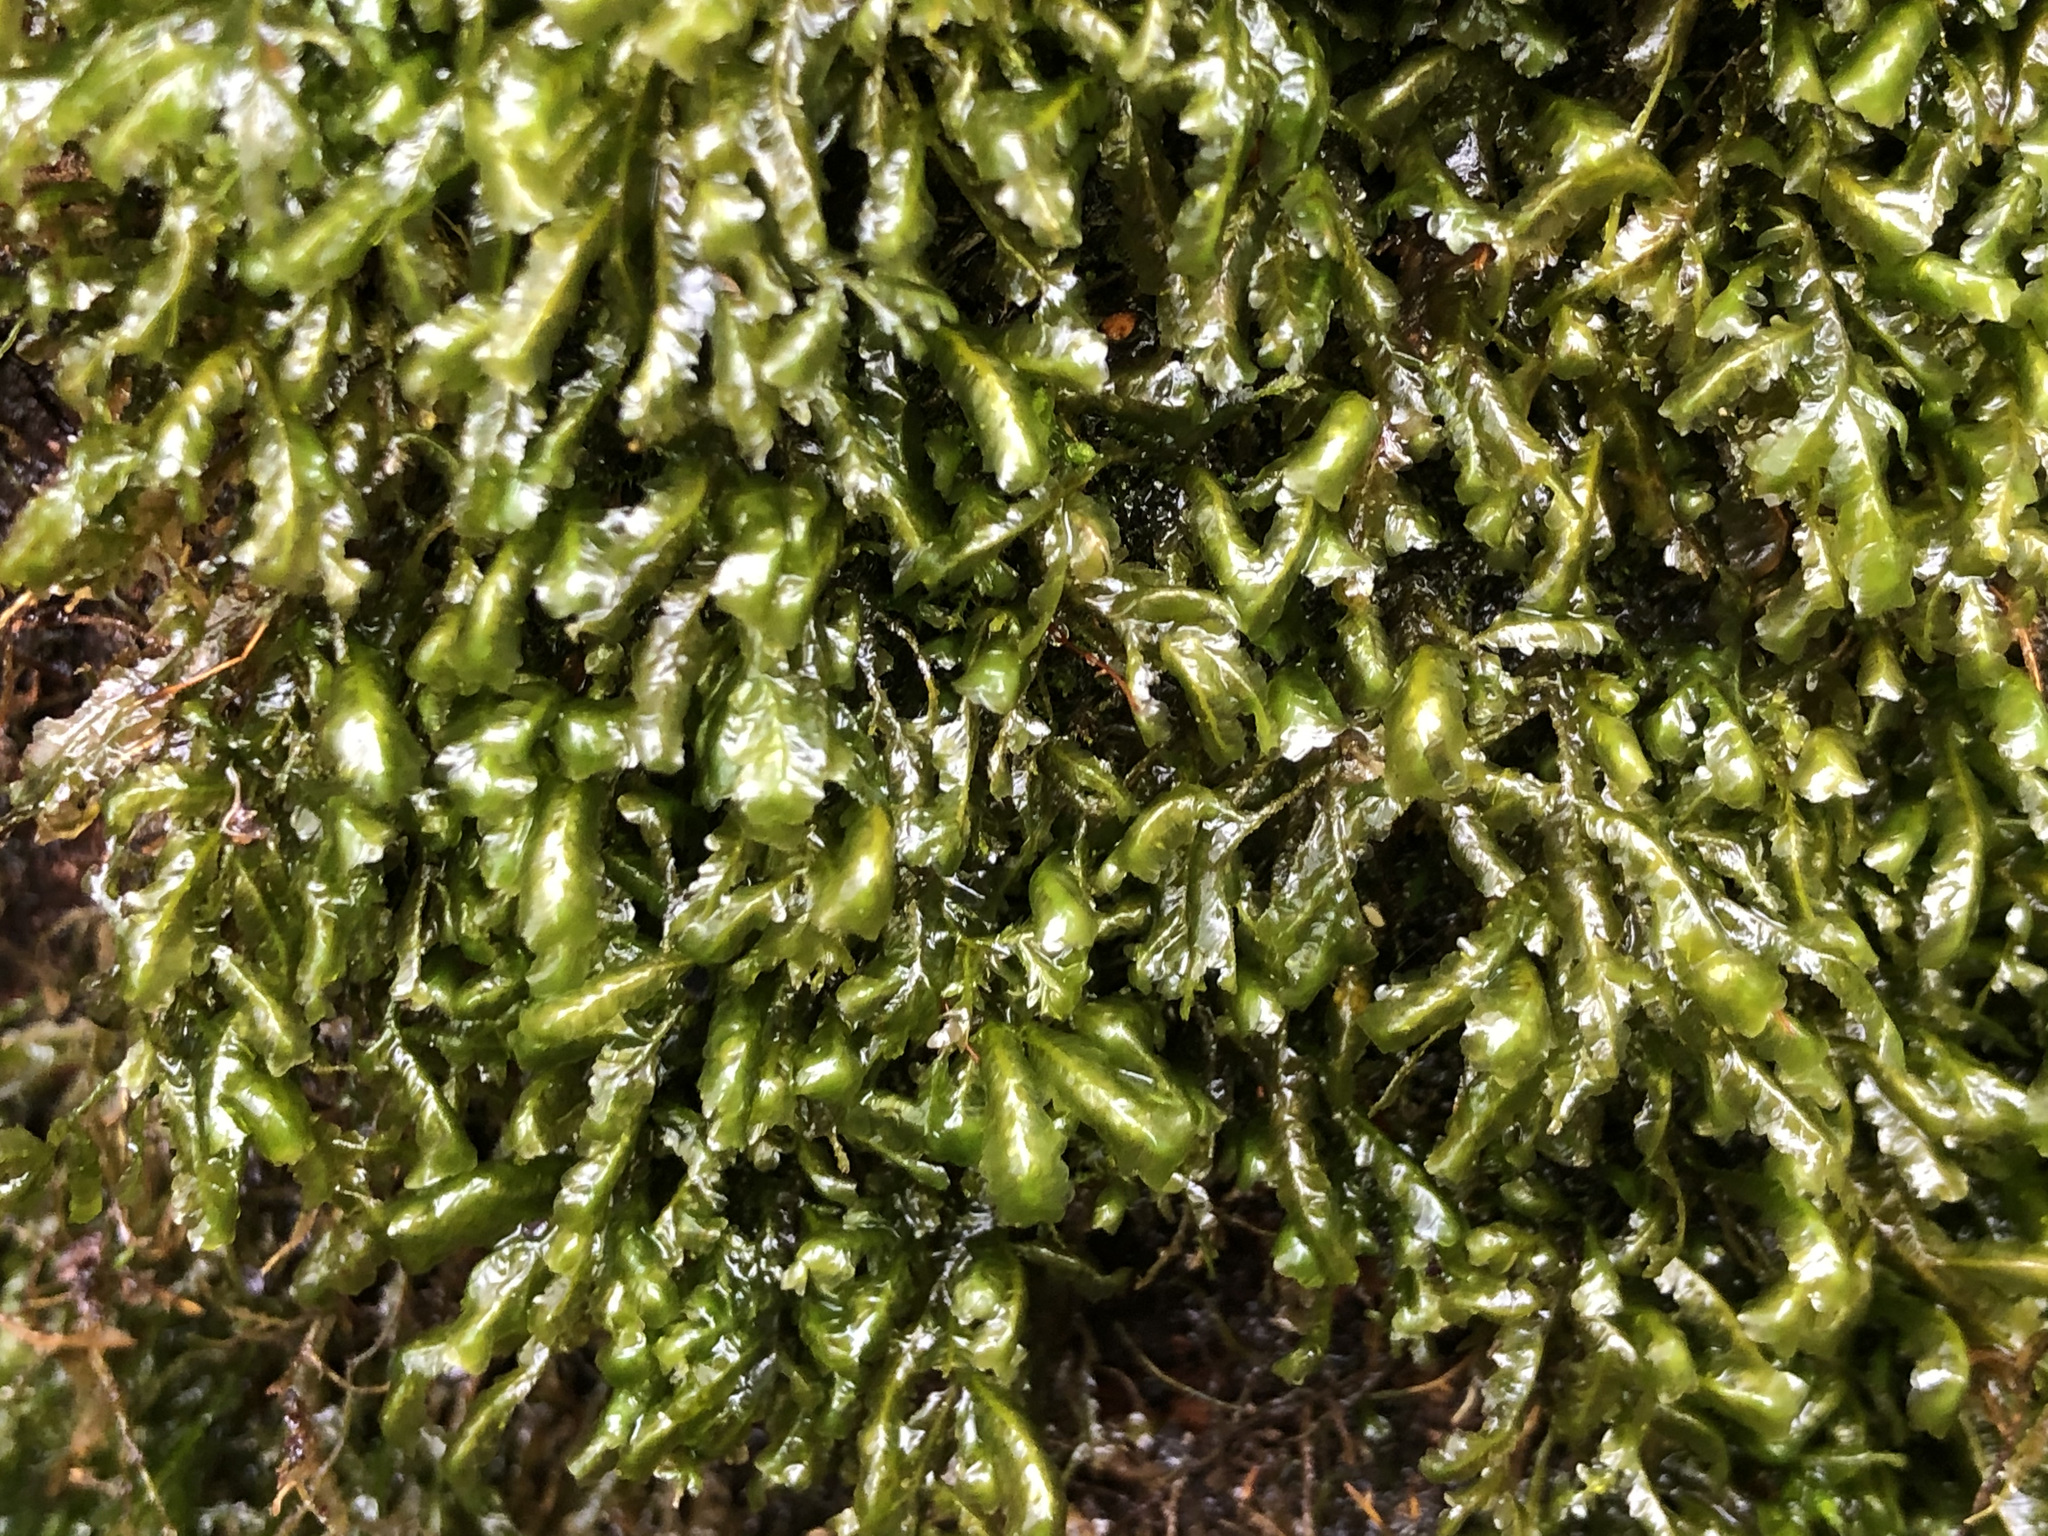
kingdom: Plantae
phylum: Bryophyta
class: Bryopsida
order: Hypnales
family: Neckeraceae
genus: Homalia
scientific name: Homalia trichomanoides
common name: Lime homalia moss
